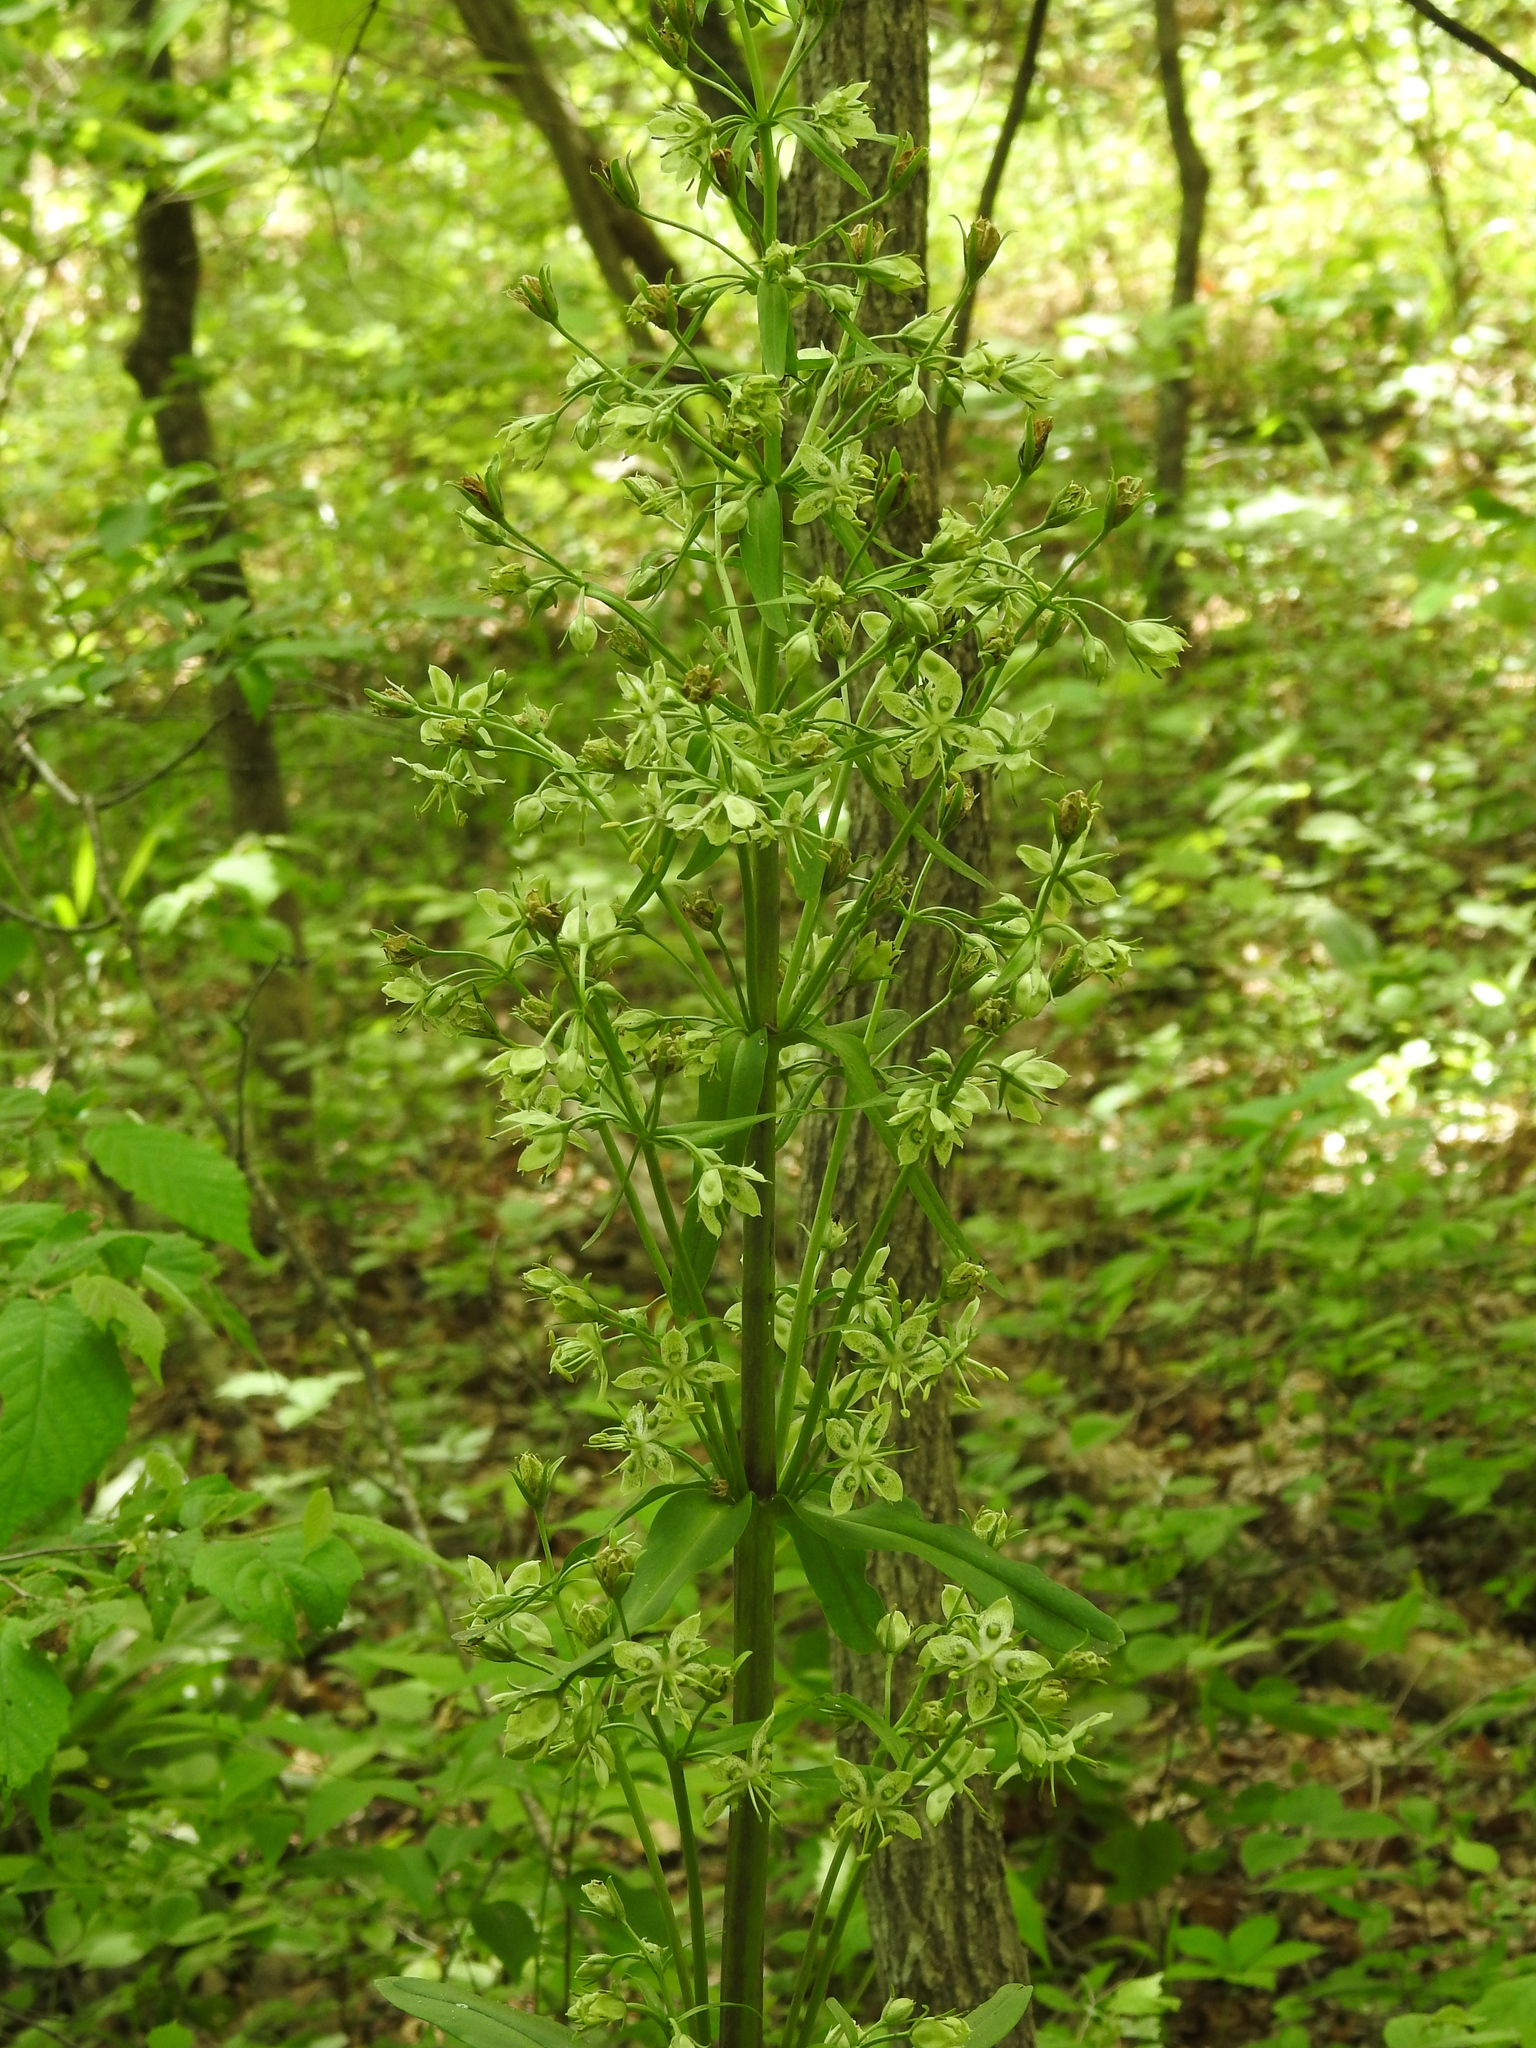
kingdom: Plantae
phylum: Tracheophyta
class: Magnoliopsida
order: Gentianales
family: Gentianaceae
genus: Frasera
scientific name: Frasera caroliniensis
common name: American columbo
